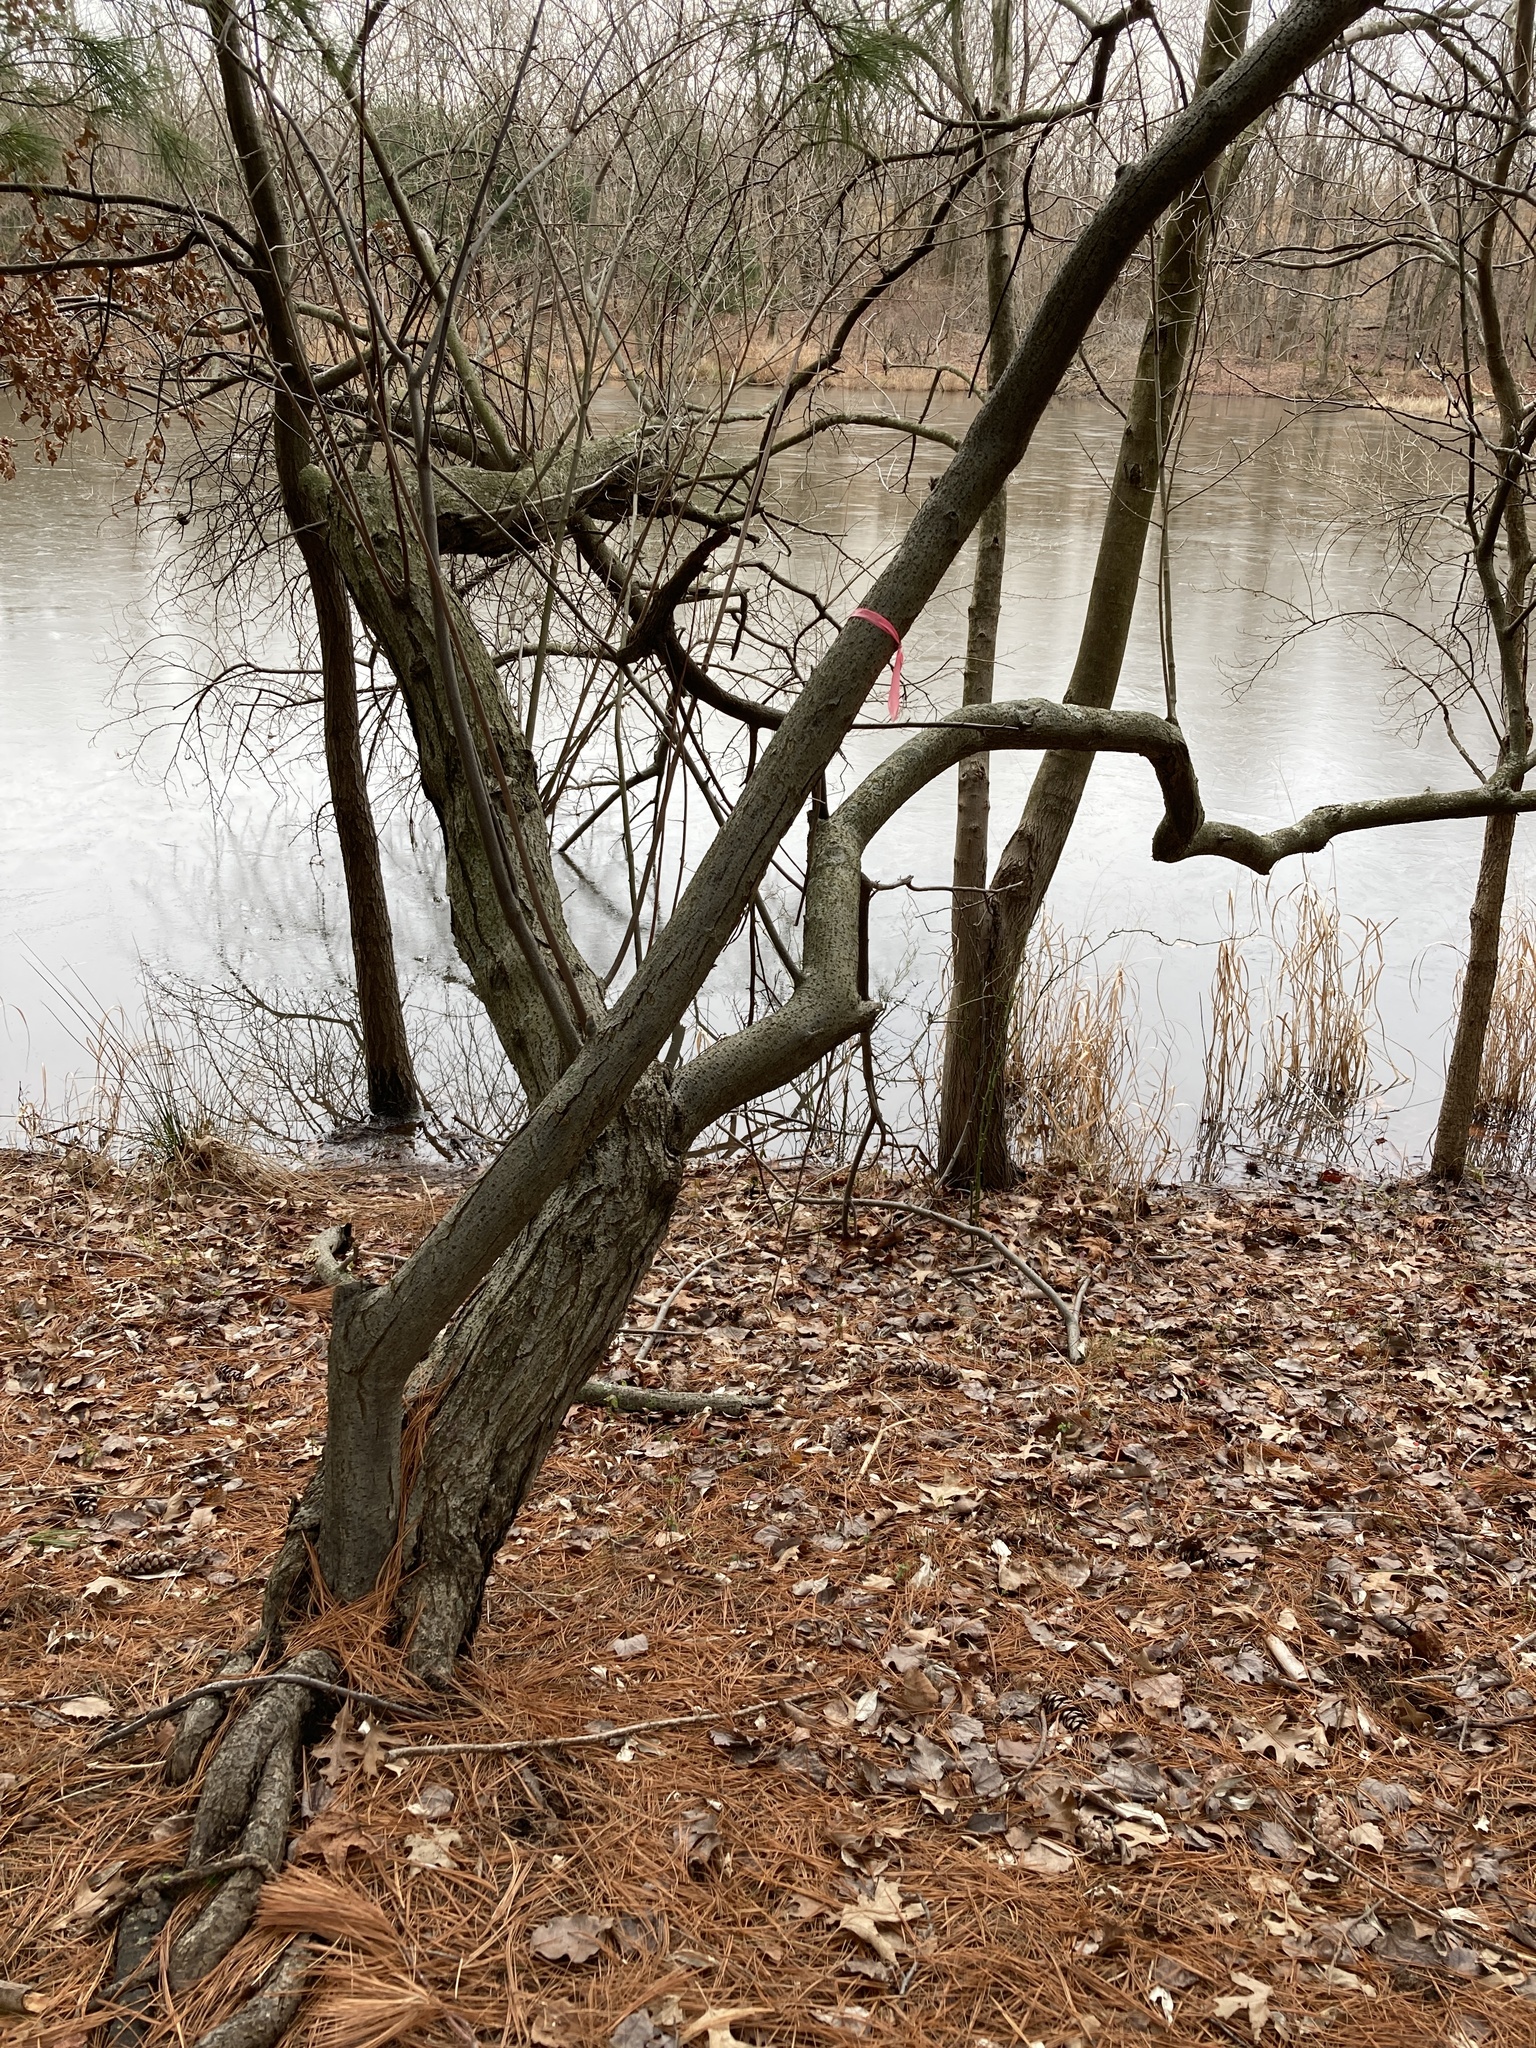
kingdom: Plantae
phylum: Tracheophyta
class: Magnoliopsida
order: Rosales
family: Elaeagnaceae
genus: Elaeagnus
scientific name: Elaeagnus umbellata
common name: Autumn olive
